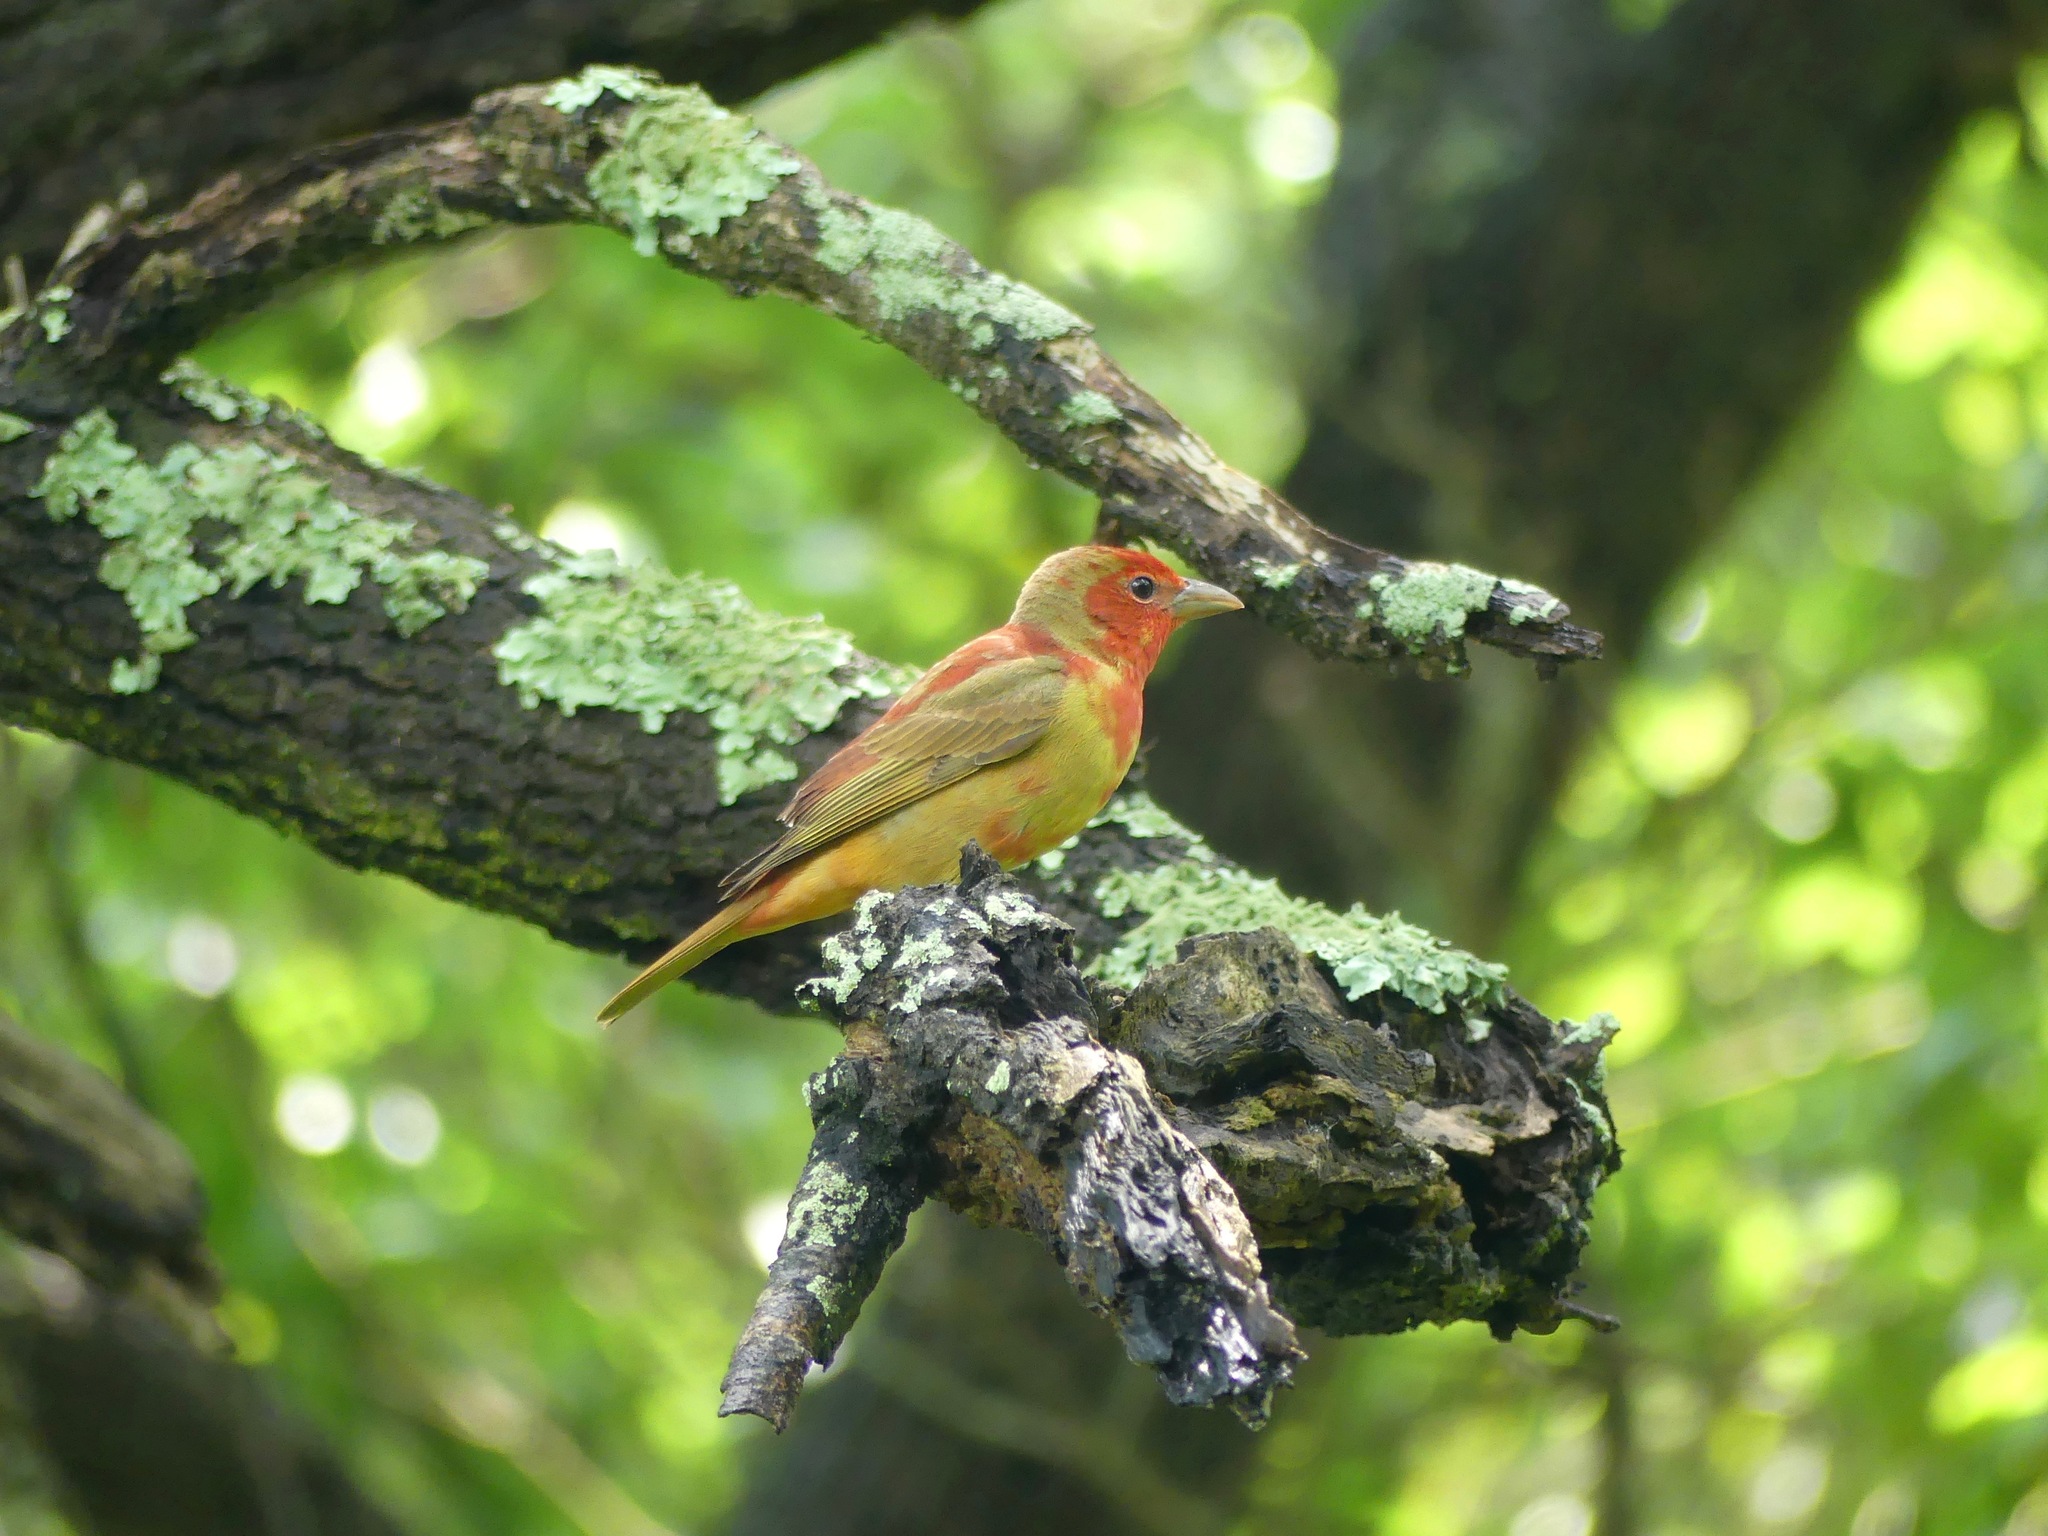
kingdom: Animalia
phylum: Chordata
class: Aves
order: Passeriformes
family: Cardinalidae
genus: Piranga
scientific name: Piranga rubra
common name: Summer tanager
